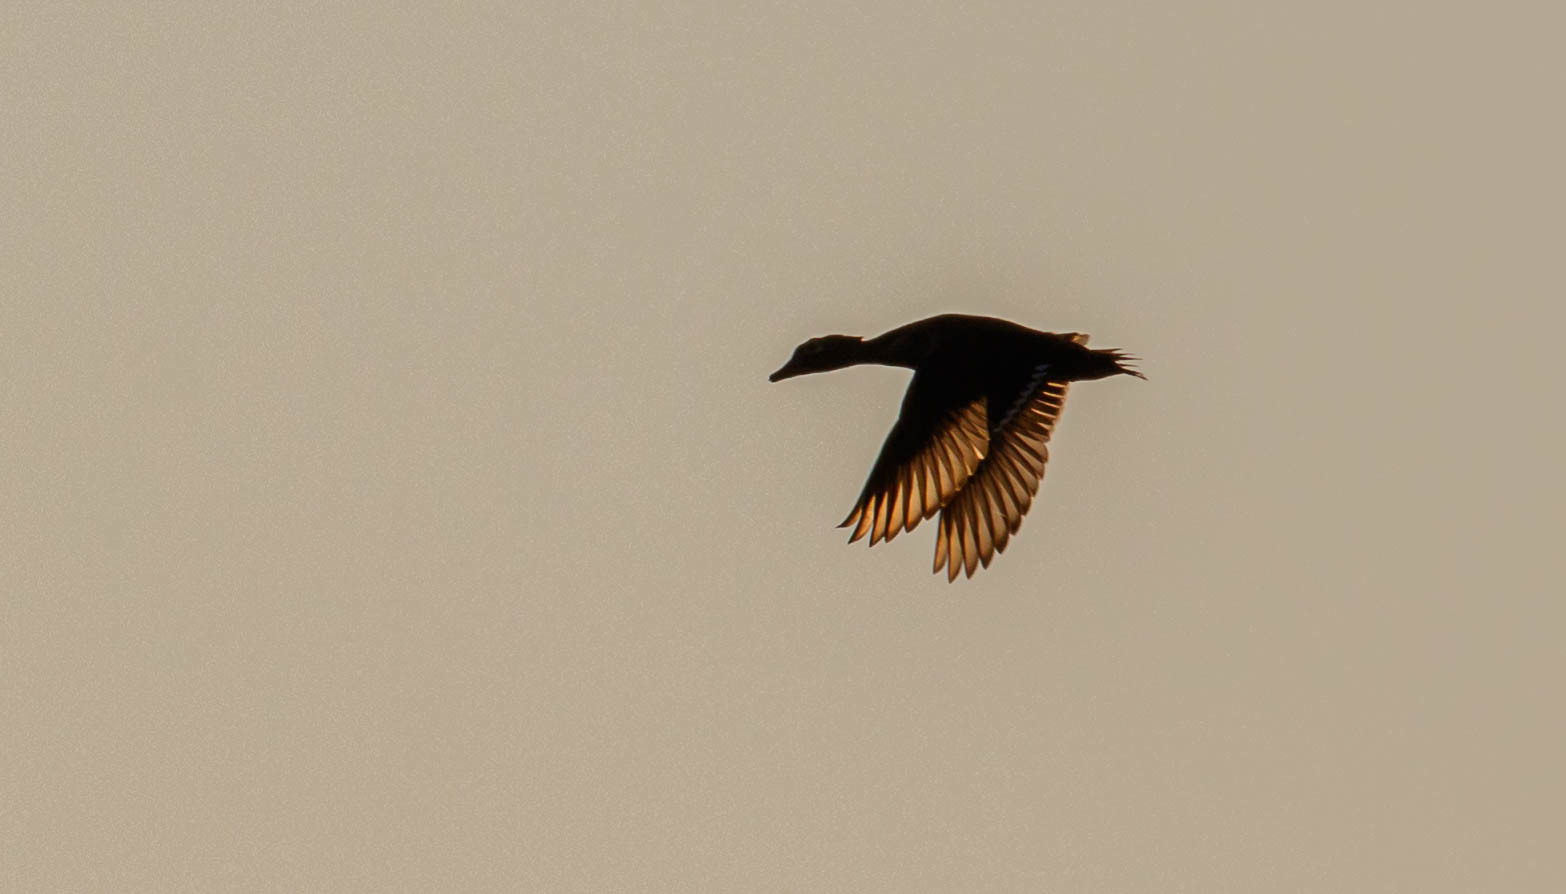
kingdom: Animalia
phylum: Chordata
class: Aves
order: Anseriformes
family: Anatidae
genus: Aix
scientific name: Aix sponsa
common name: Wood duck
